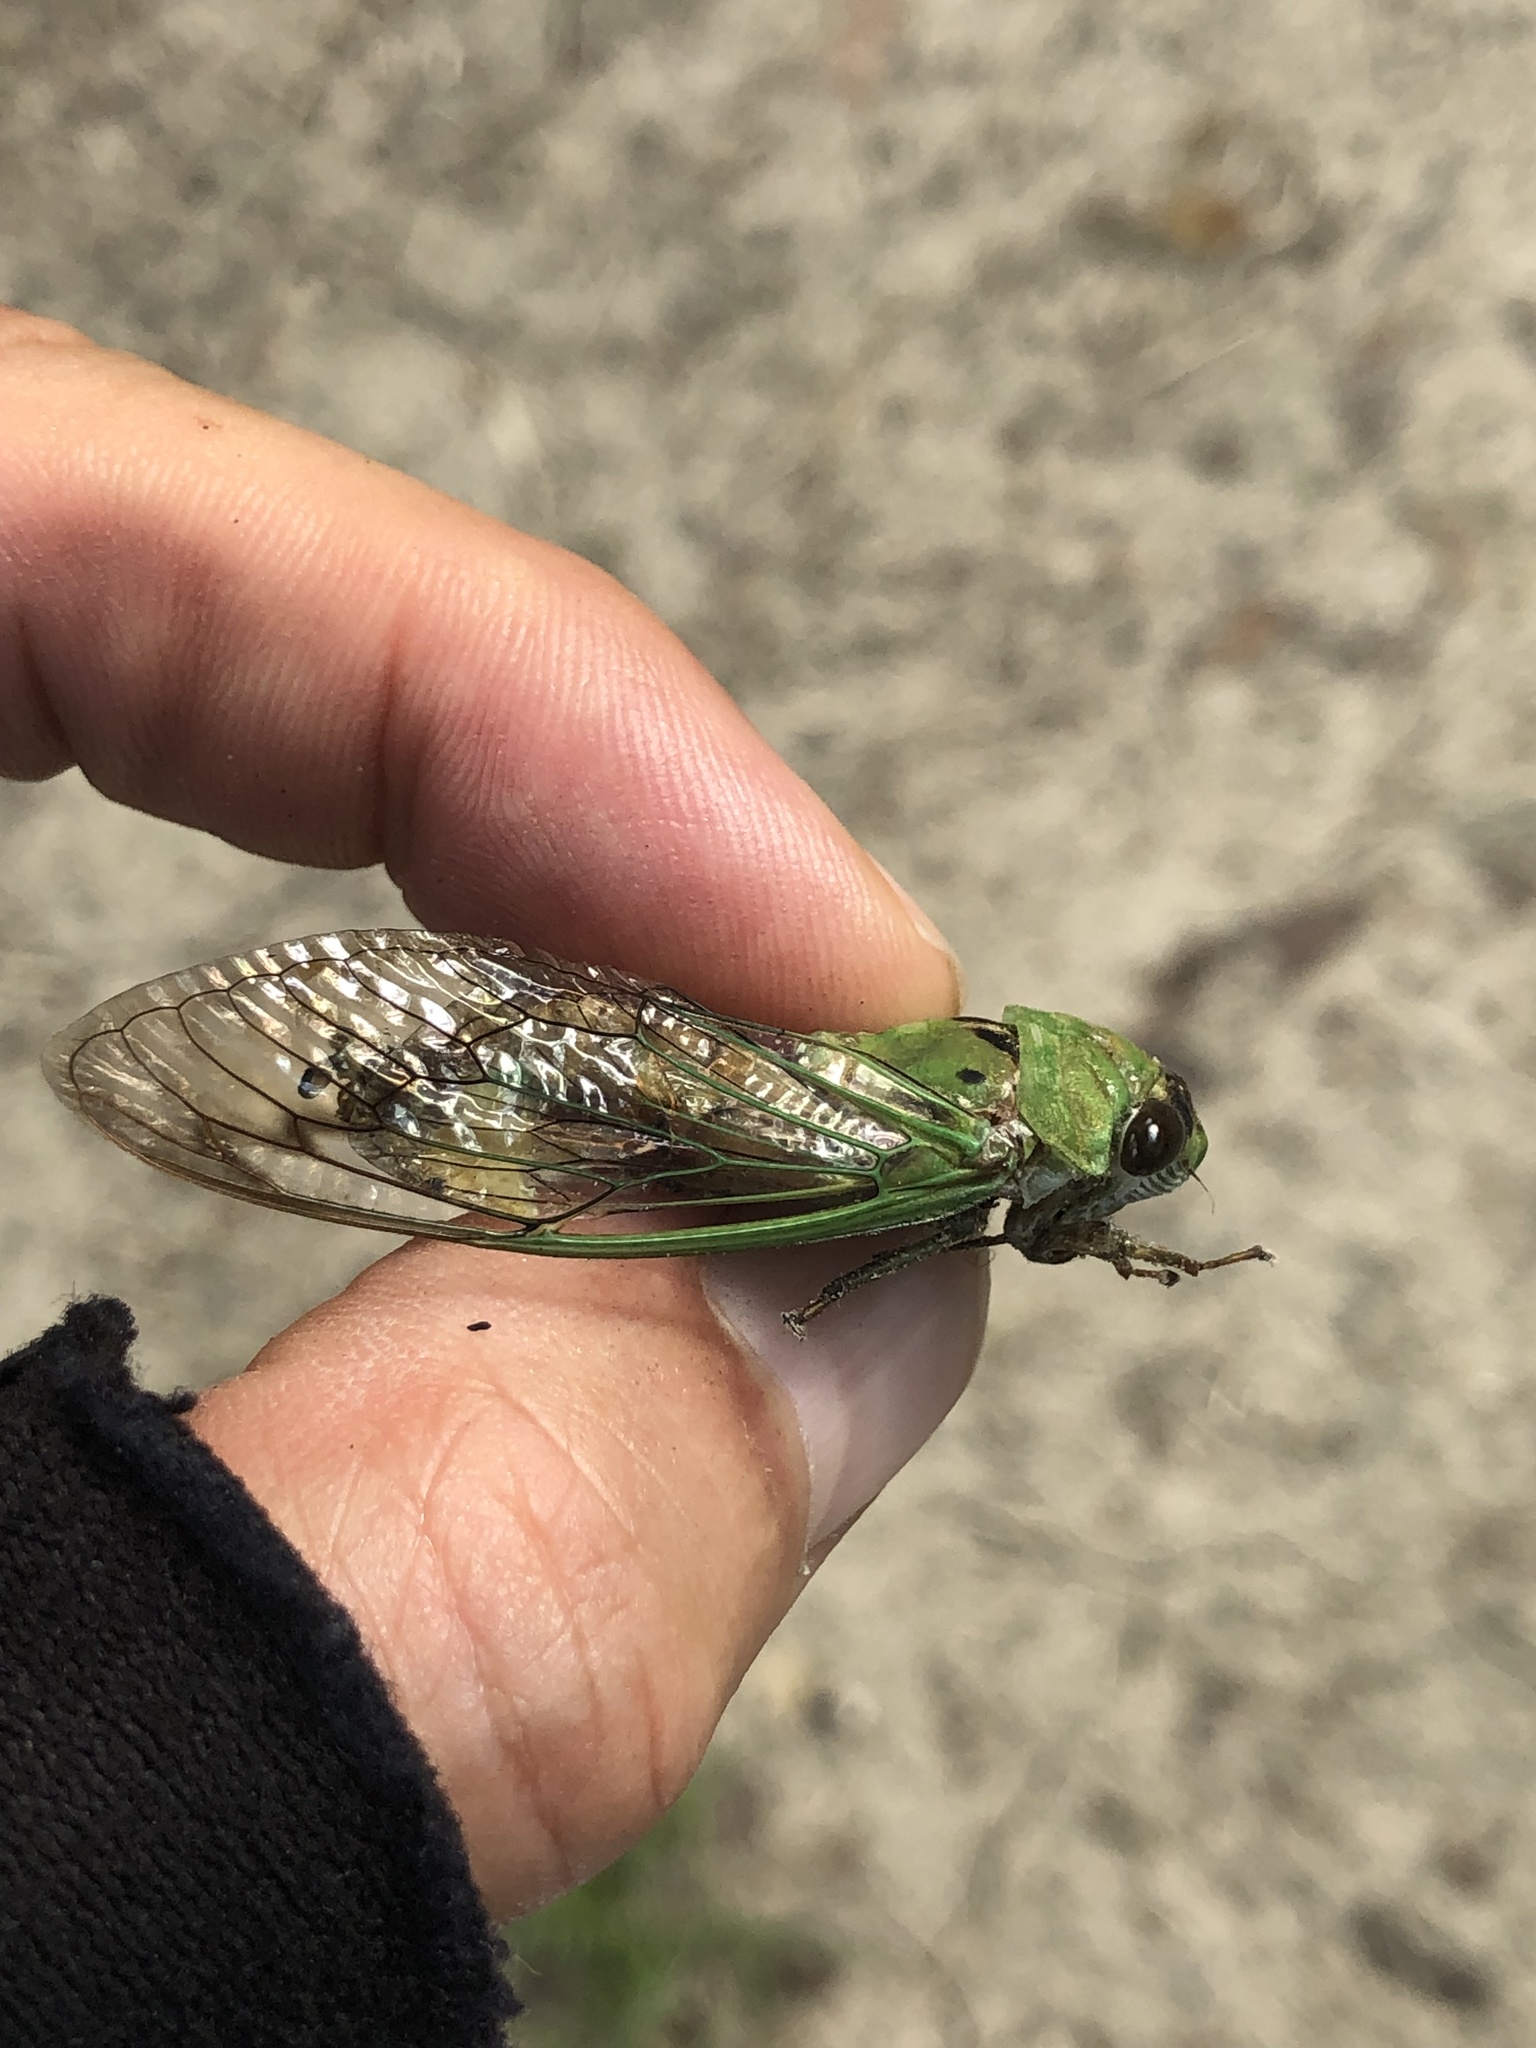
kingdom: Animalia
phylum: Arthropoda
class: Insecta
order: Hemiptera
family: Cicadidae
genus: Neotibicen
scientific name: Neotibicen superbus
